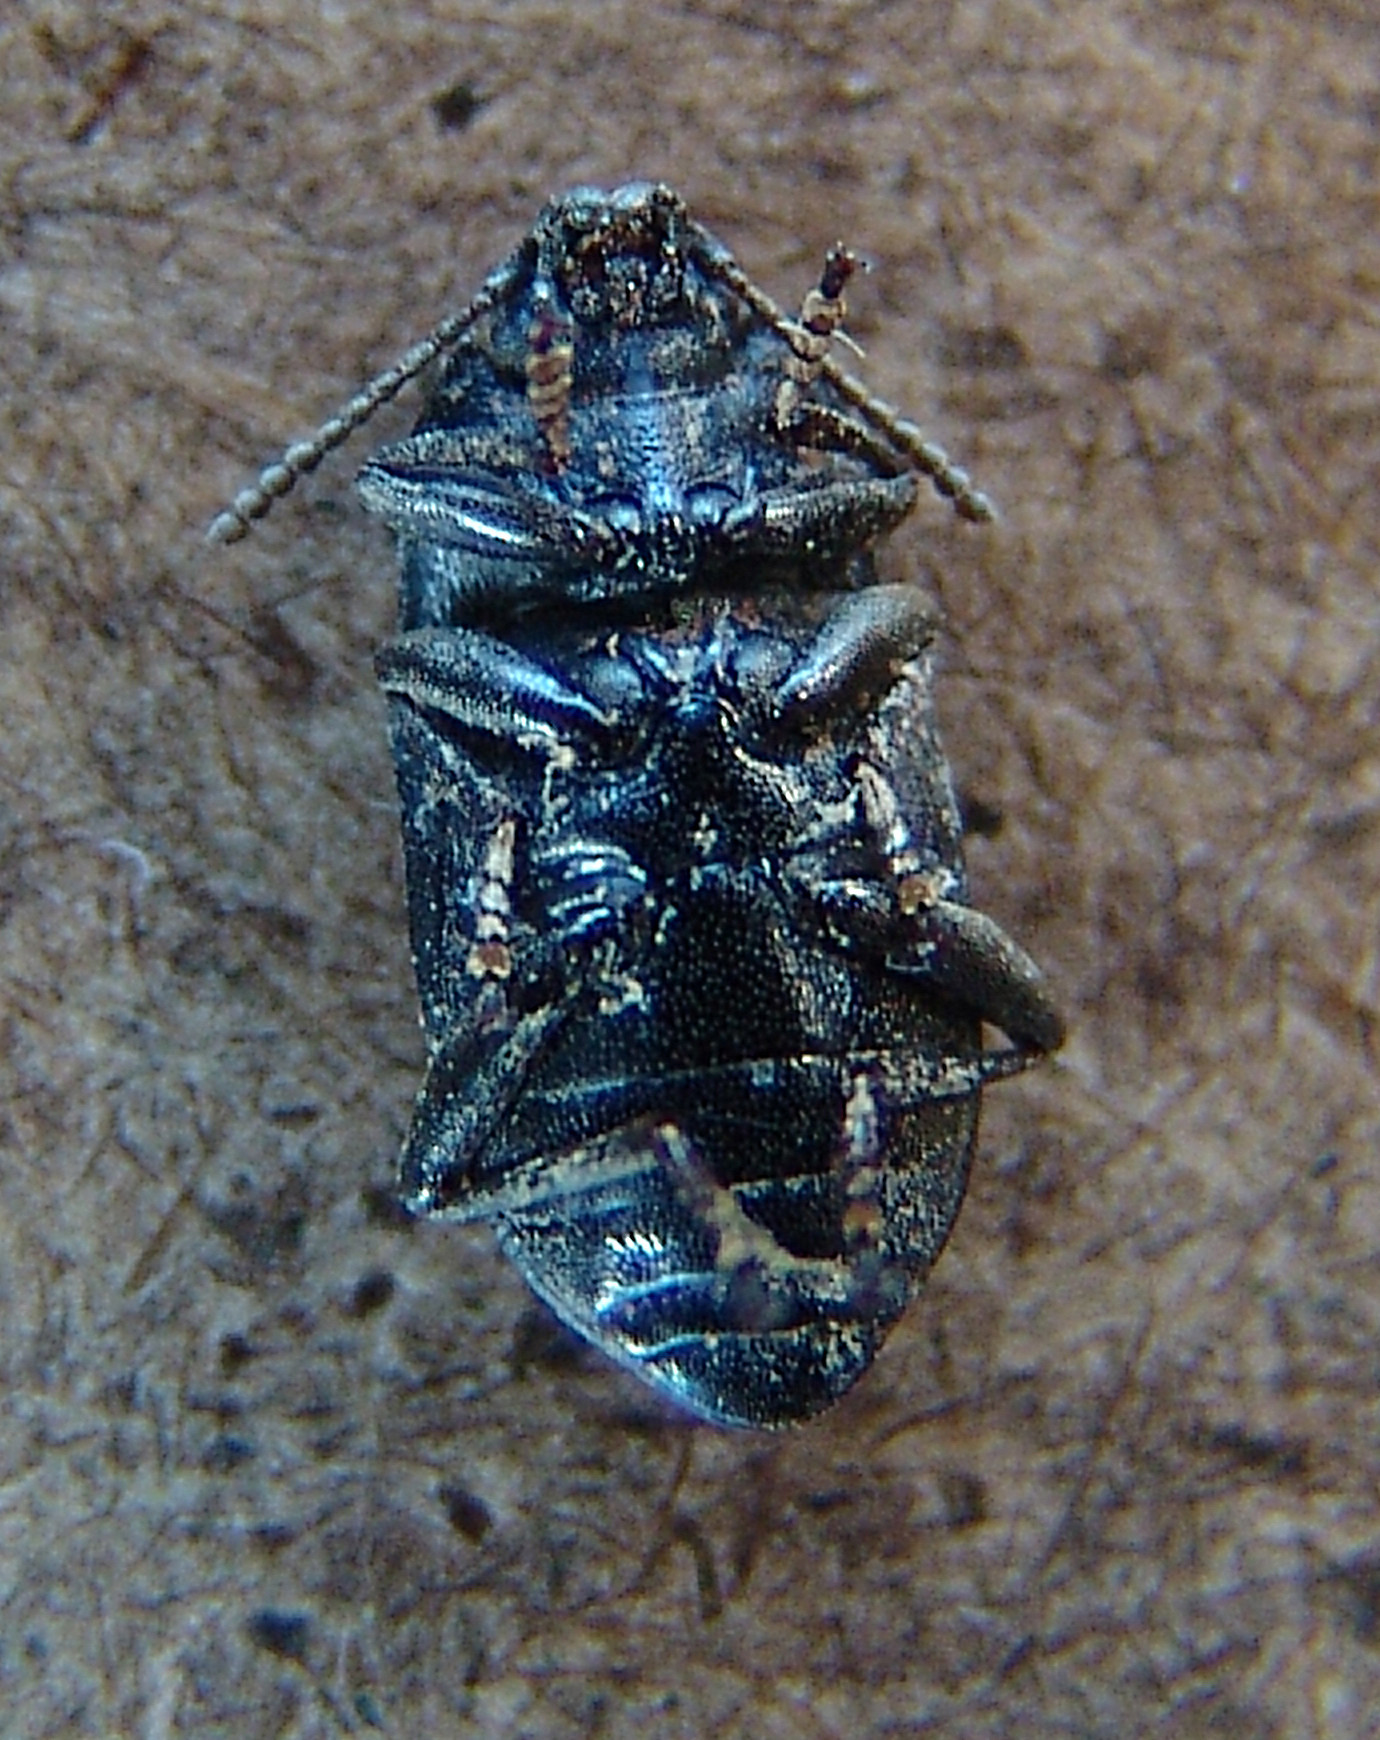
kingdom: Animalia
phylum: Arthropoda
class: Insecta
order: Coleoptera
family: Tenebrionidae
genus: Asiopus
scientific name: Asiopus
